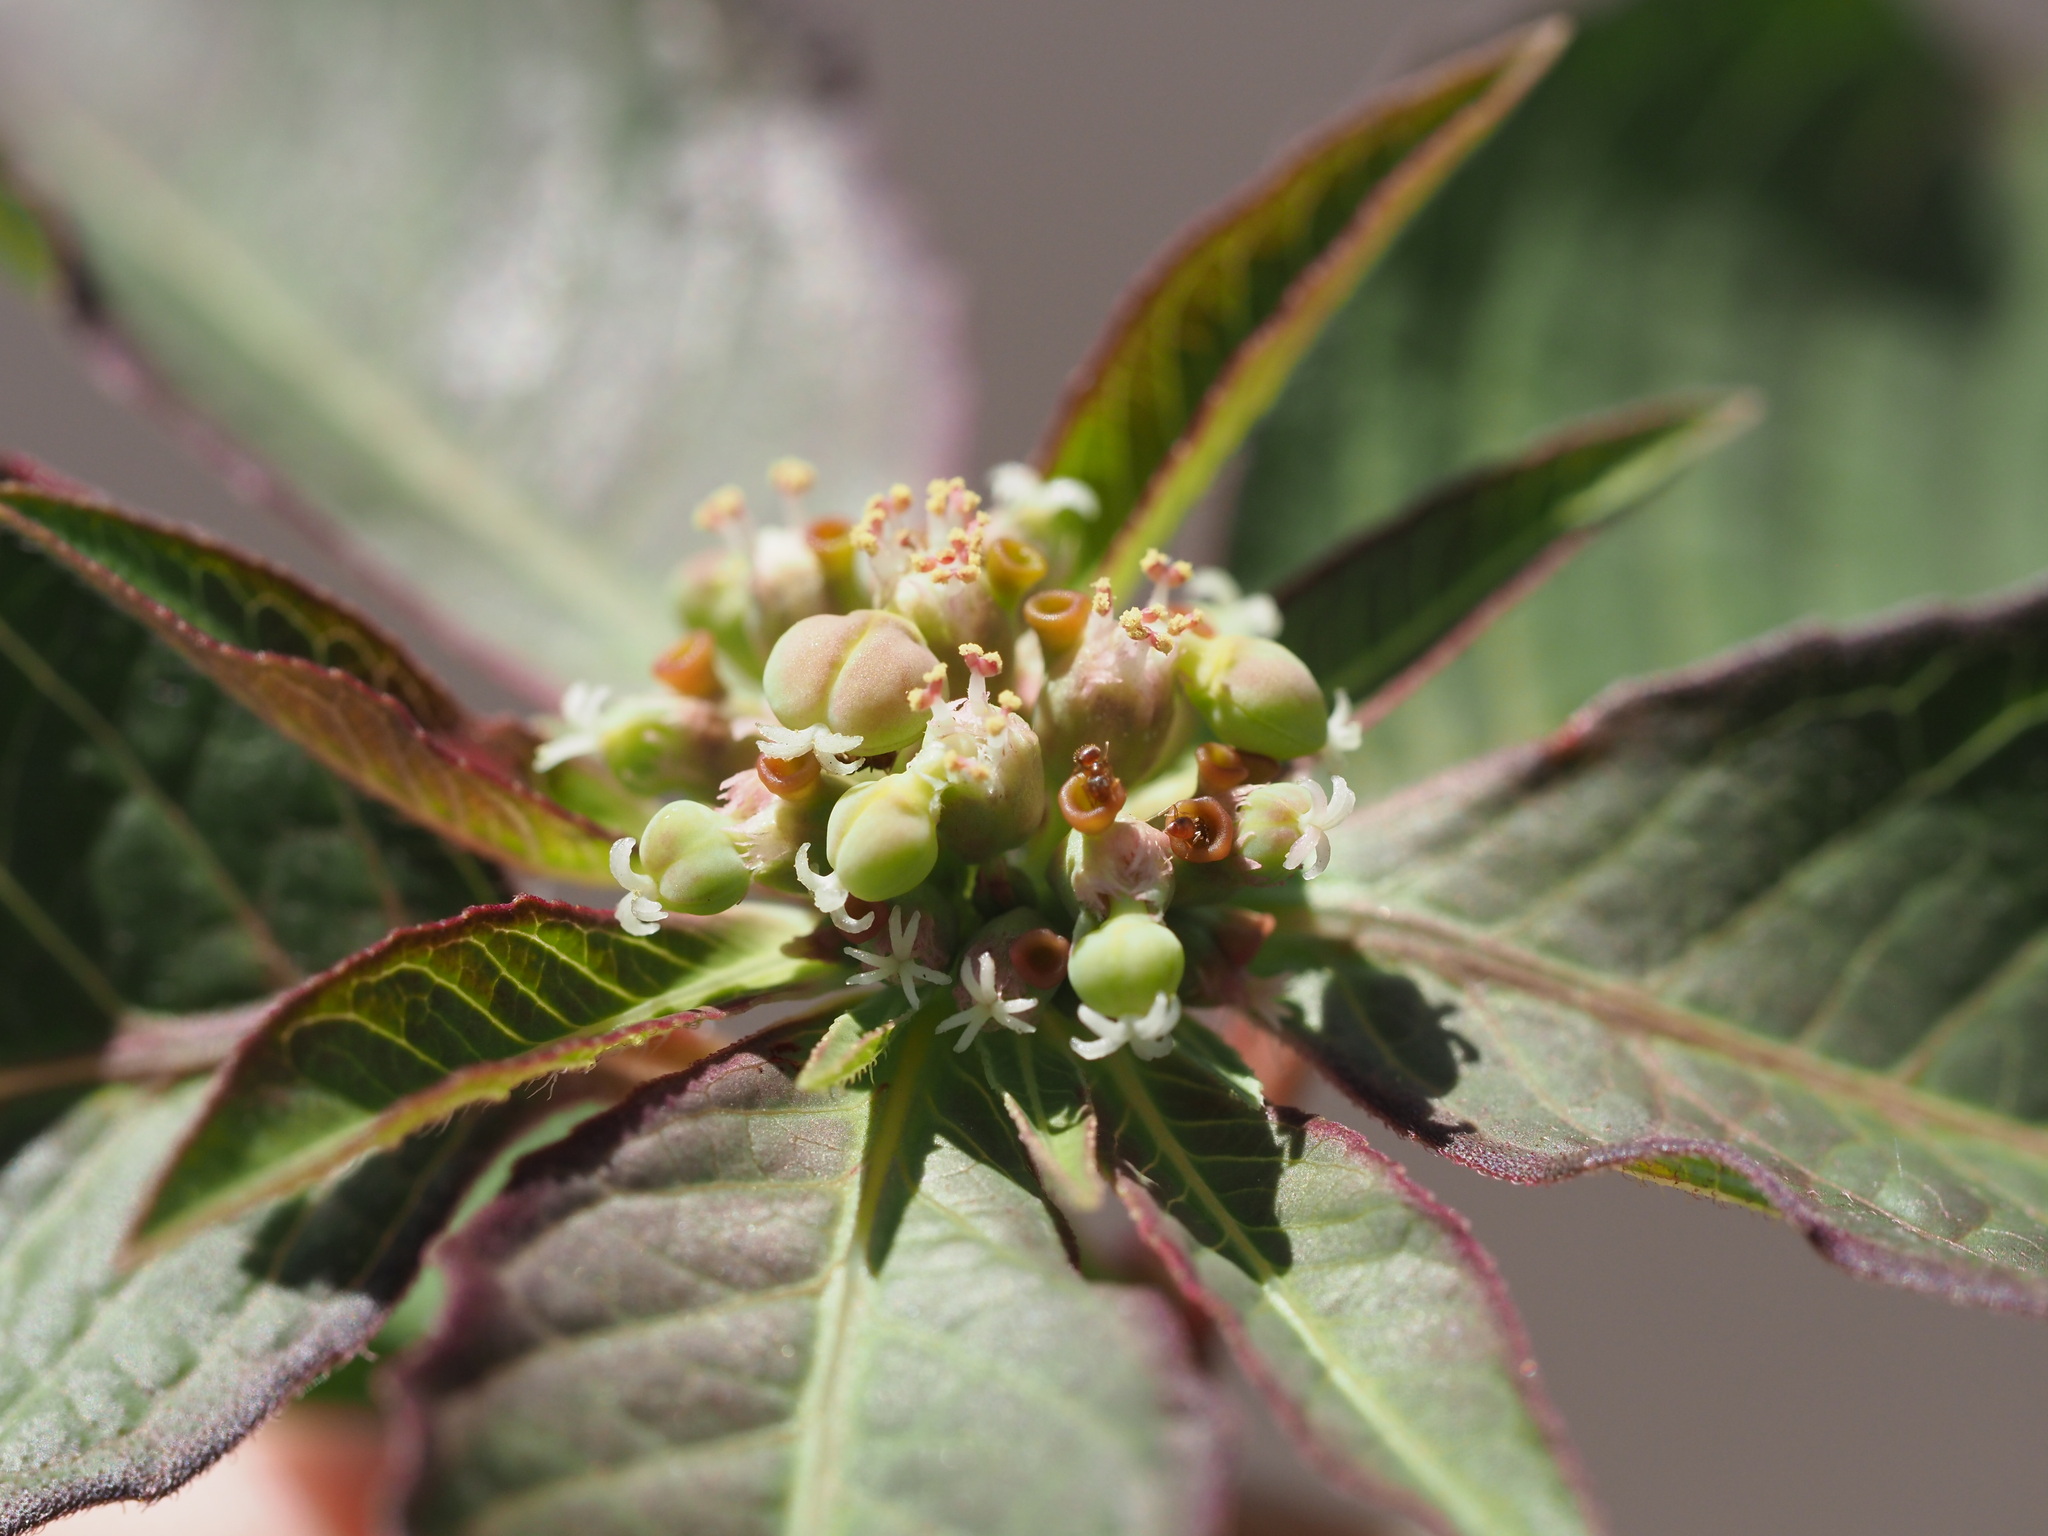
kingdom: Plantae
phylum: Tracheophyta
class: Magnoliopsida
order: Malpighiales
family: Euphorbiaceae
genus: Euphorbia
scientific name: Euphorbia heterophylla
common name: Mexican fireplant
